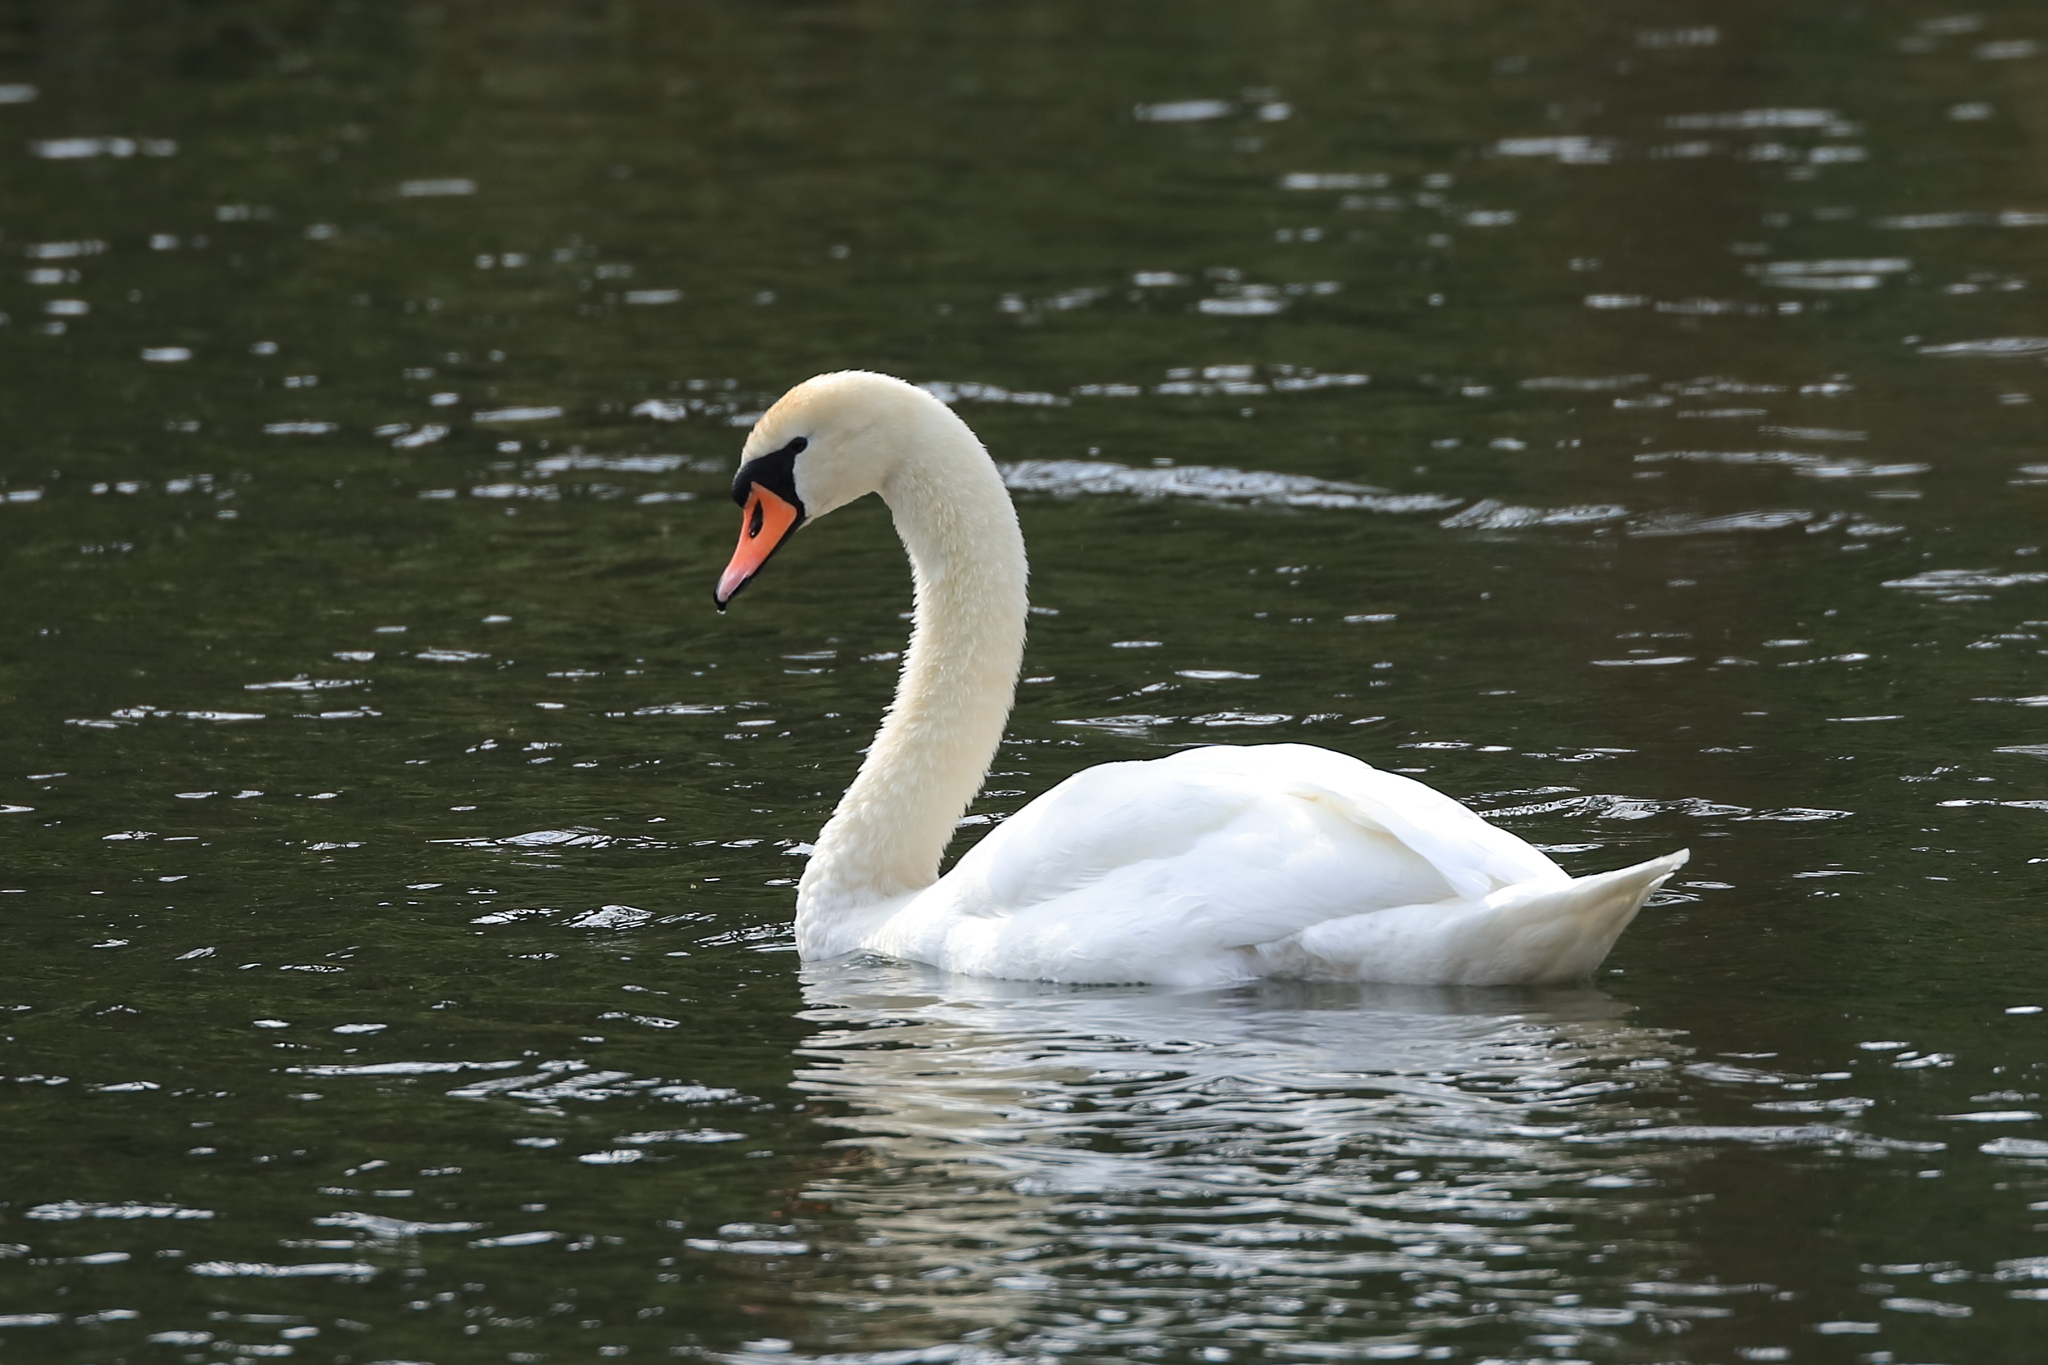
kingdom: Animalia
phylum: Chordata
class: Aves
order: Anseriformes
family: Anatidae
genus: Cygnus
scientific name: Cygnus olor
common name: Mute swan
